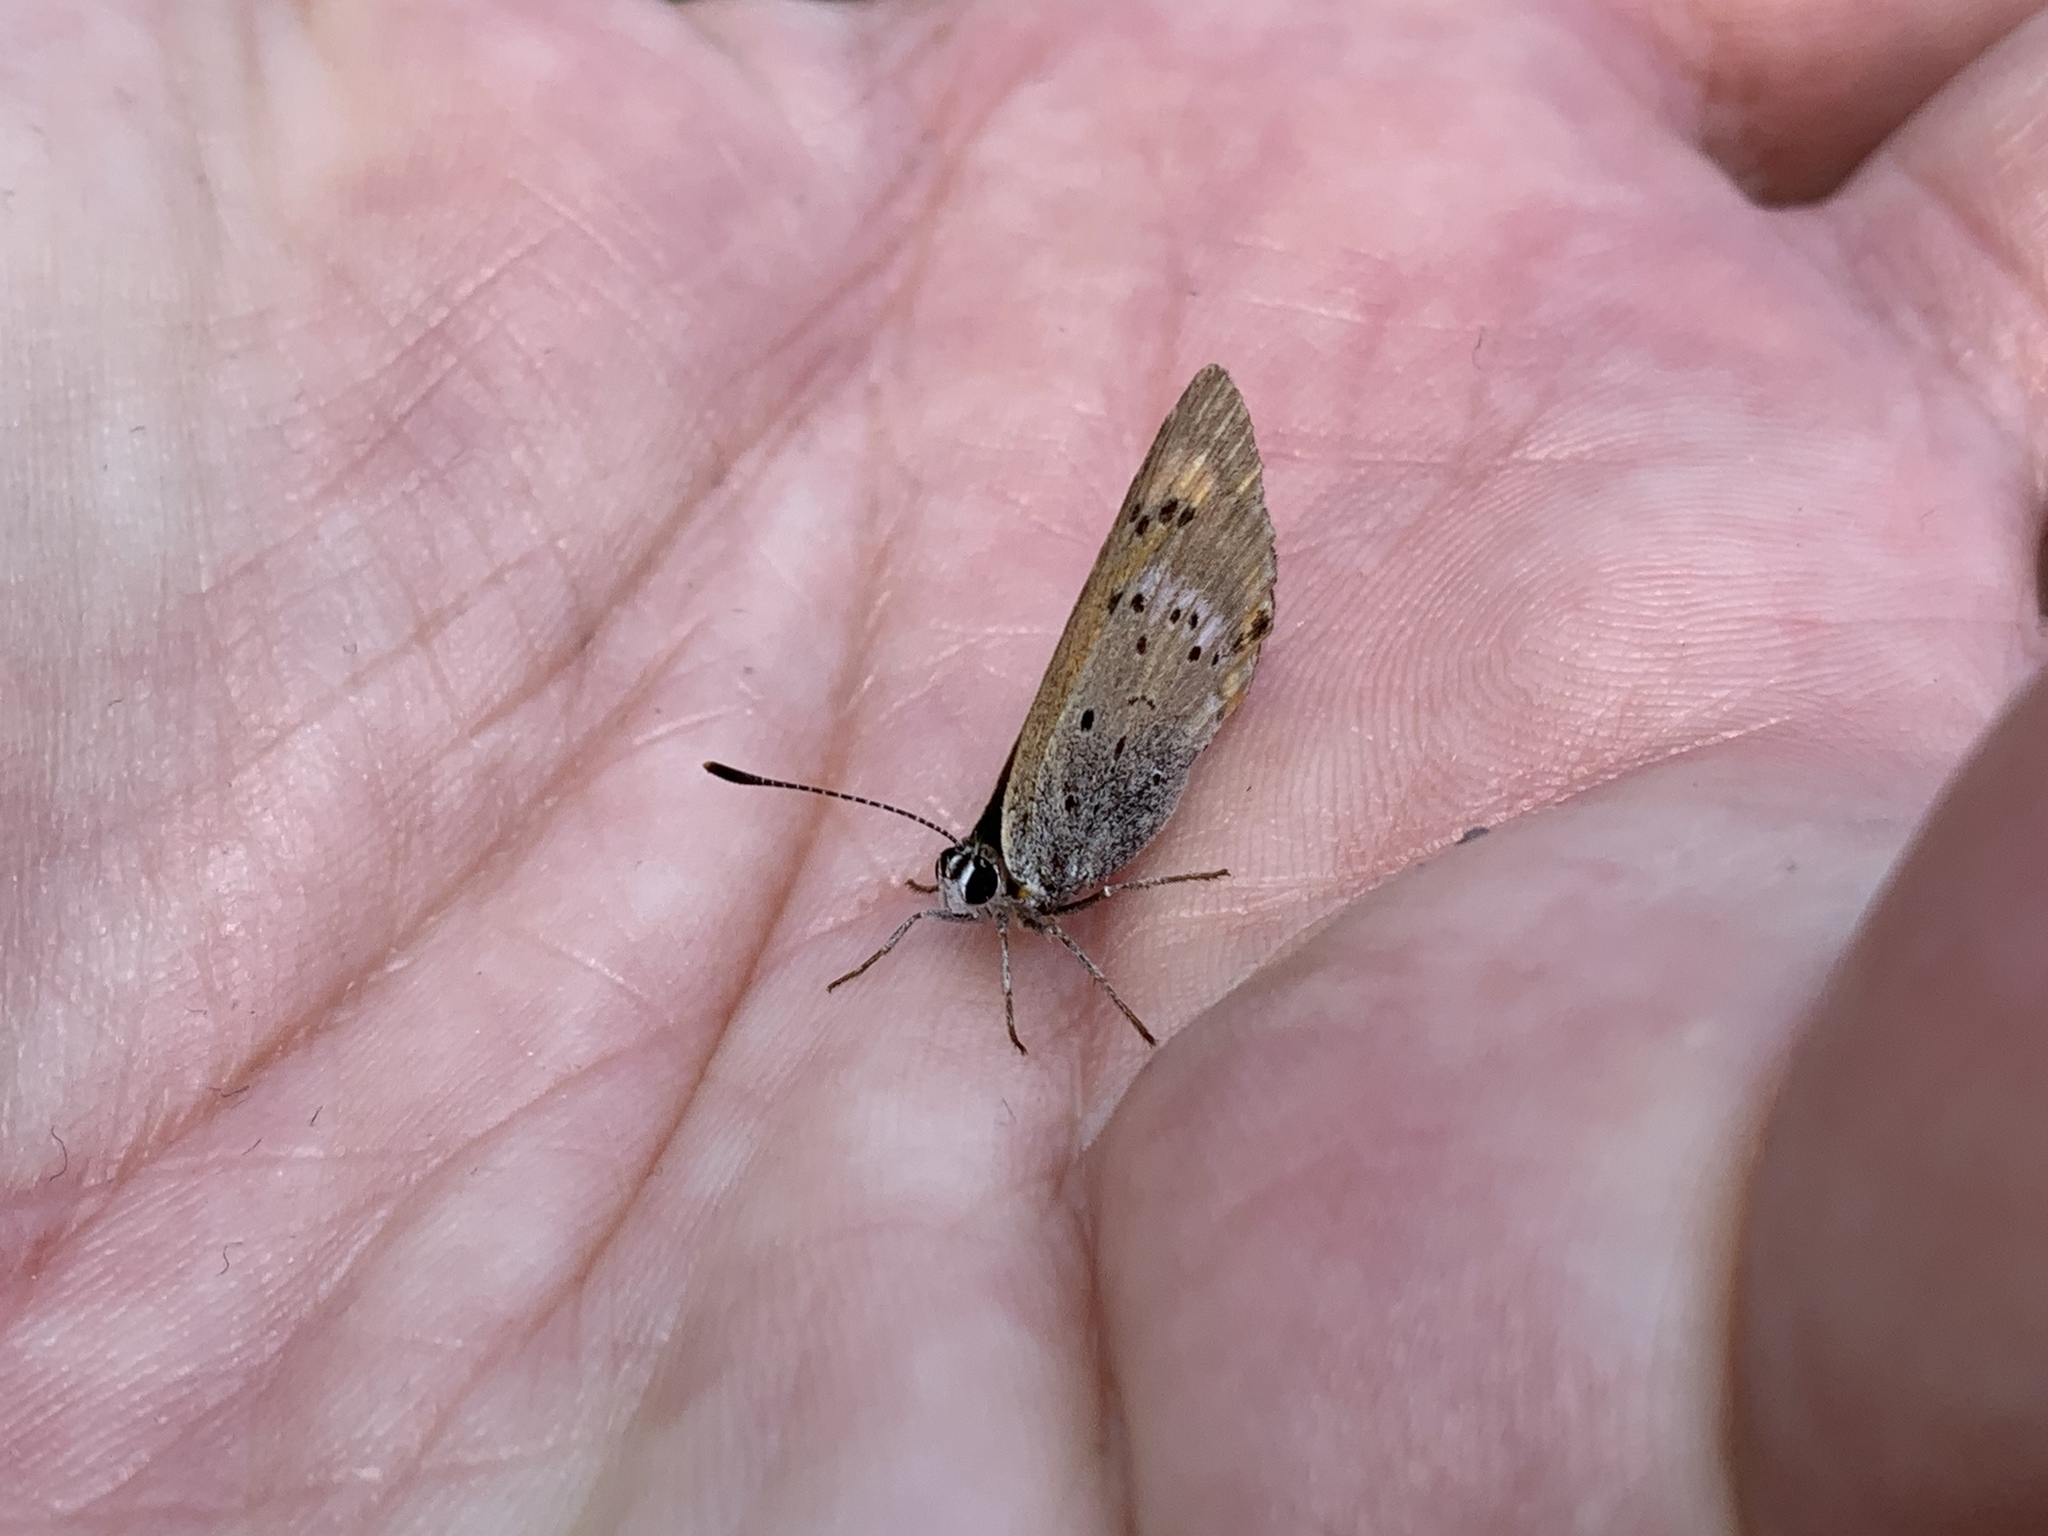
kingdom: Animalia
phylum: Arthropoda
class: Insecta
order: Lepidoptera
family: Lycaenidae
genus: Lycaena
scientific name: Lycaena virgaureae
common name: Scarce copper
